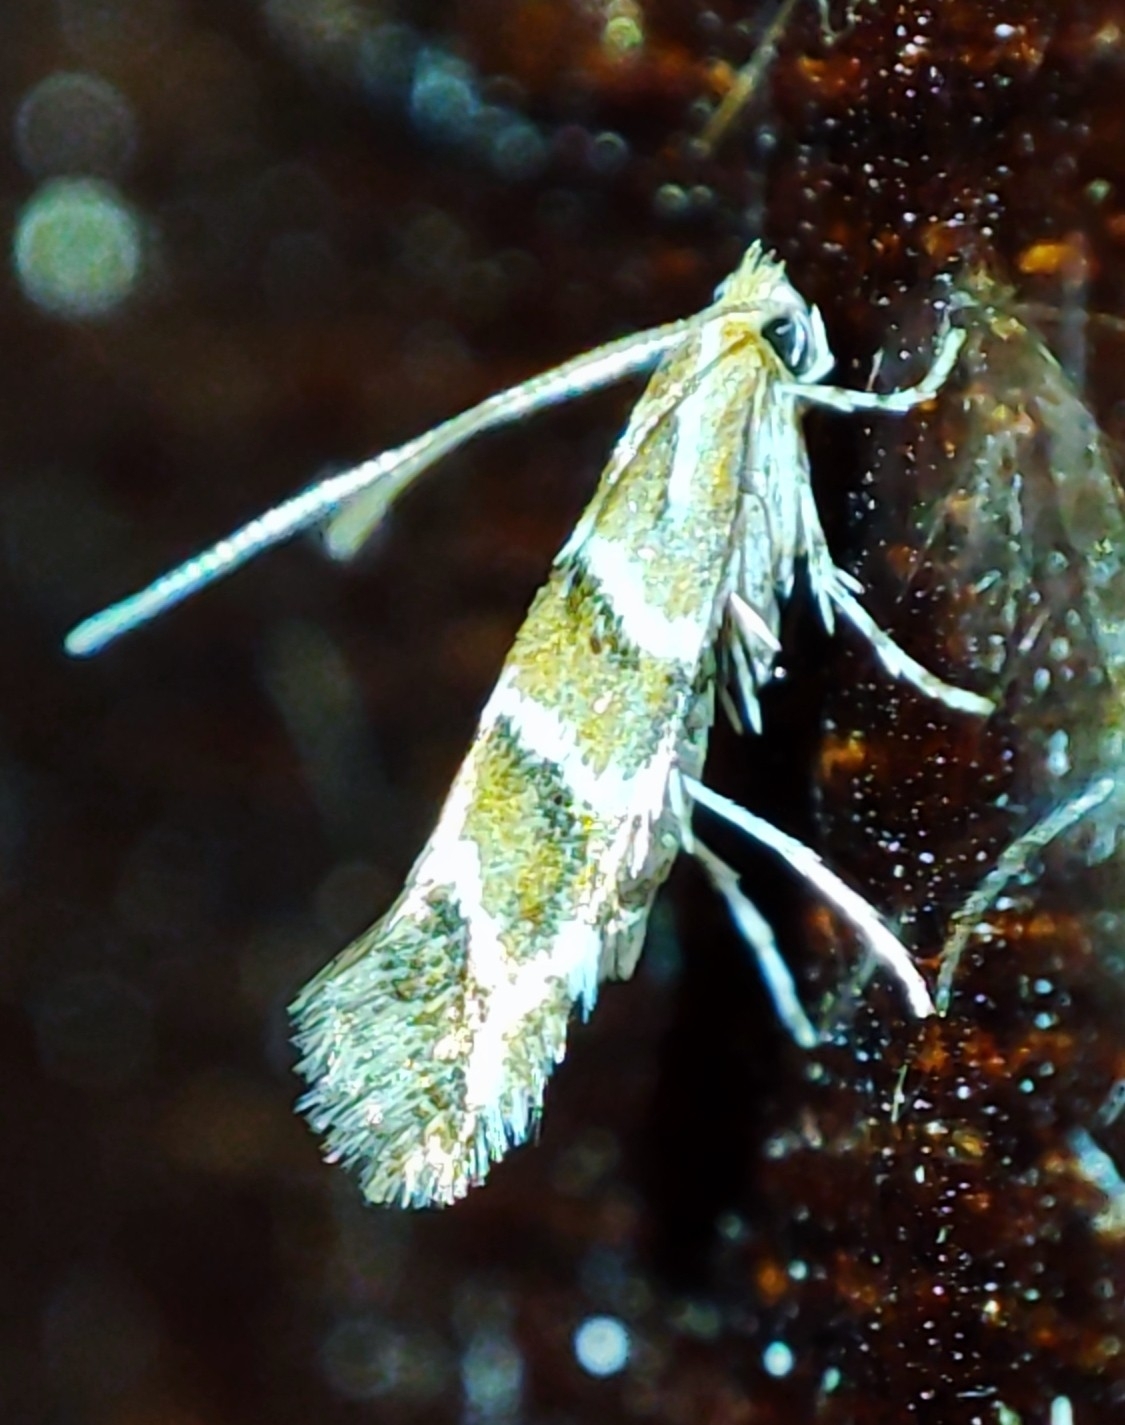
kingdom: Animalia
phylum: Arthropoda
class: Insecta
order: Lepidoptera
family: Gracillariidae
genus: Cameraria
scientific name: Cameraria ohridella
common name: Horse-chestnut leaf-miner
